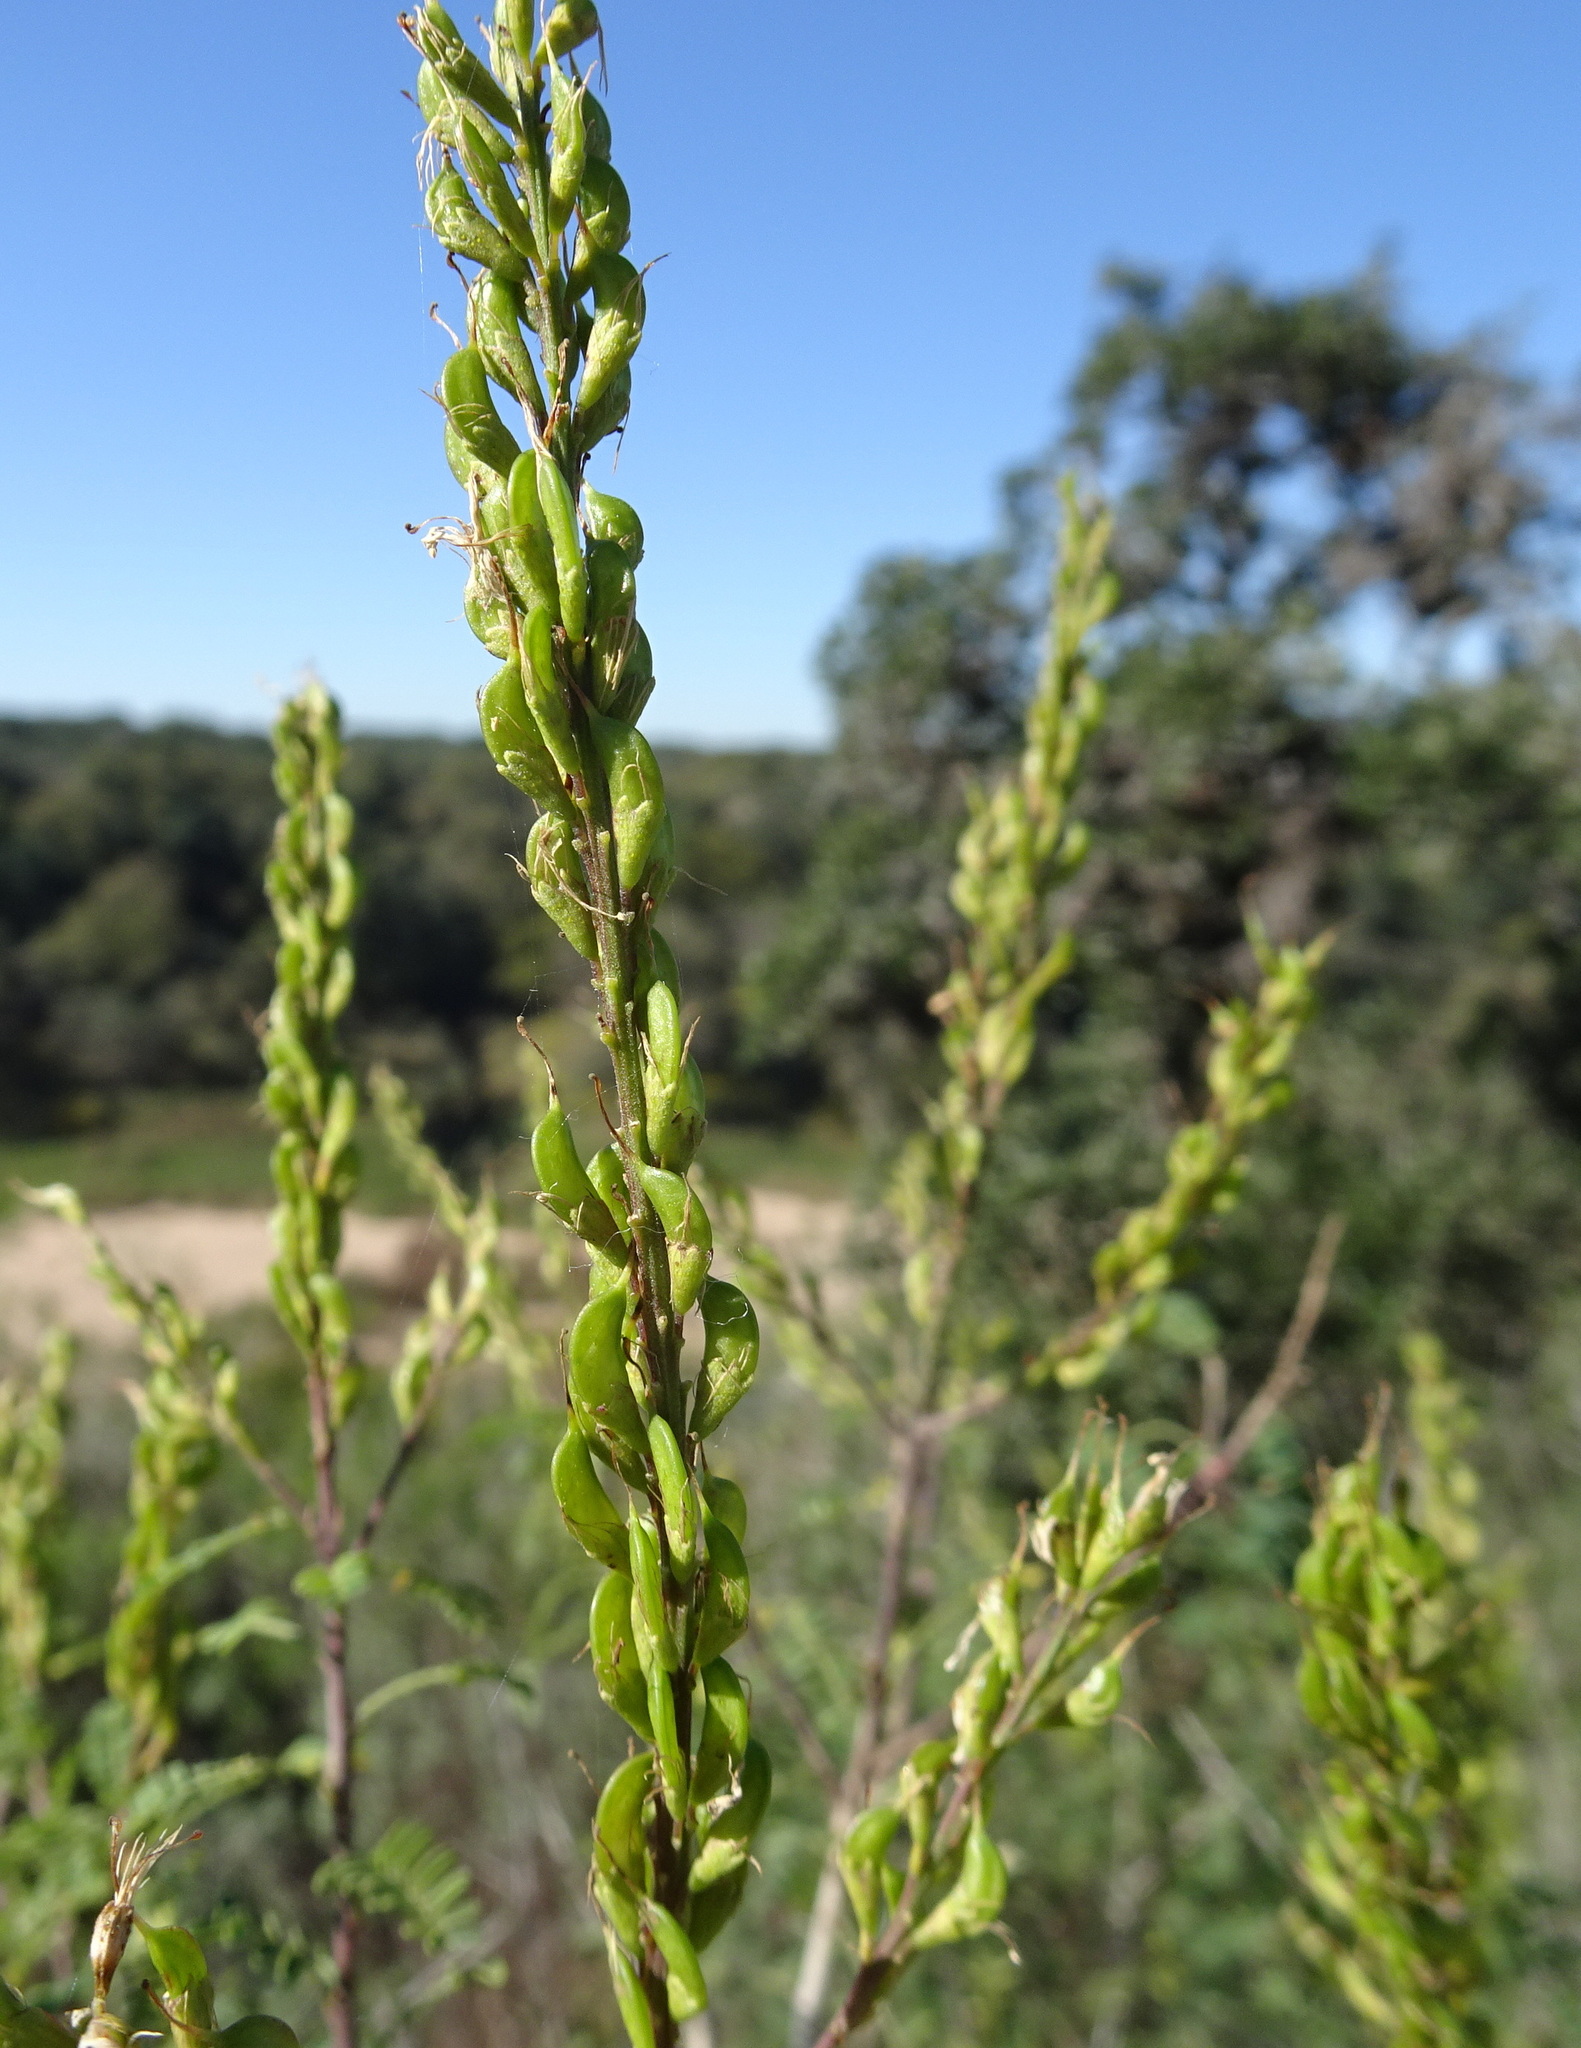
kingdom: Plantae
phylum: Tracheophyta
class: Magnoliopsida
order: Fabales
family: Fabaceae
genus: Eysenhardtia
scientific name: Eysenhardtia texana
